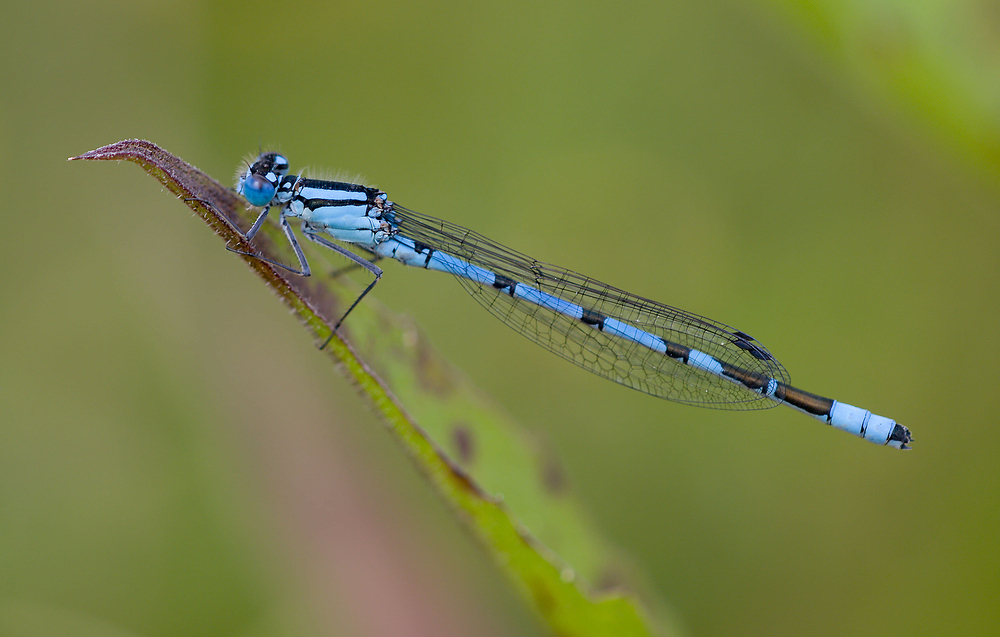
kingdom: Animalia
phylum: Arthropoda
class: Insecta
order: Odonata
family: Coenagrionidae
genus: Enallagma
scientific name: Enallagma cyathigerum
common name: Common blue damselfly
